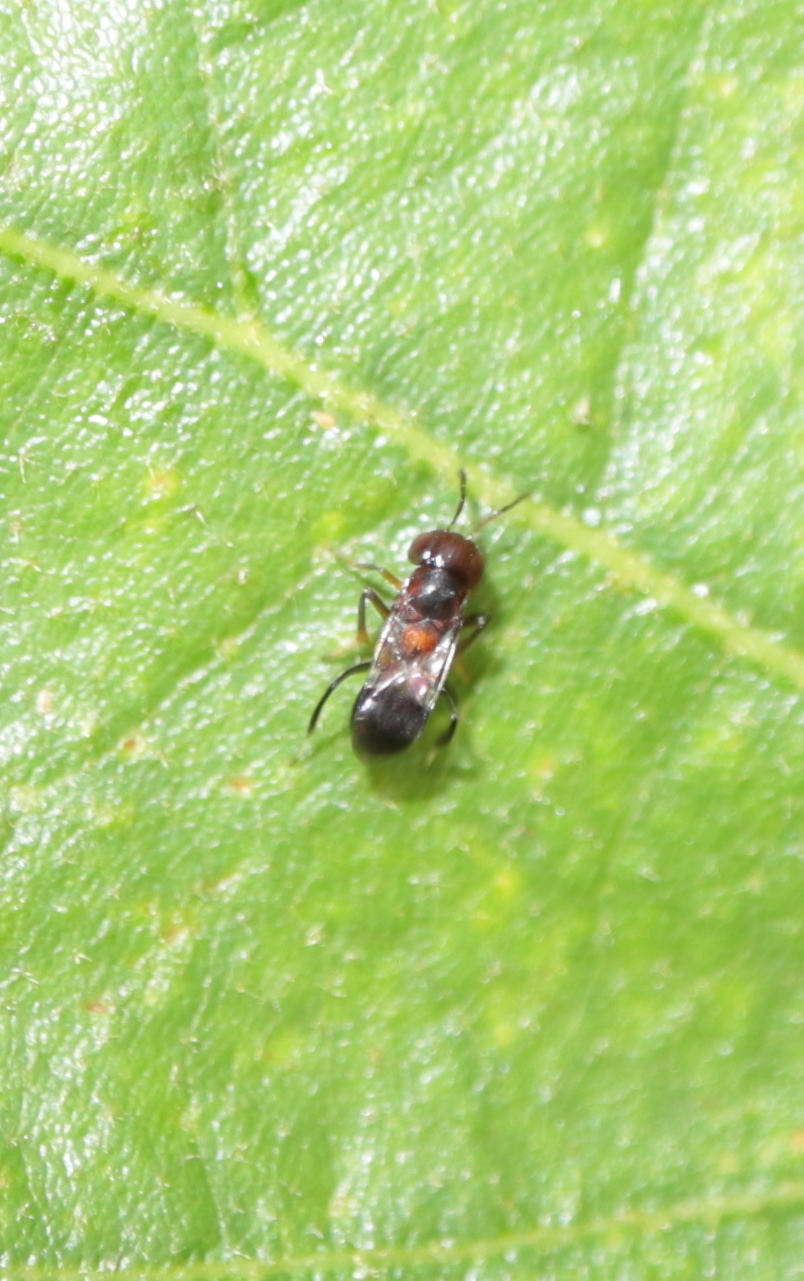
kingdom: Animalia
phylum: Arthropoda
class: Insecta
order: Hymenoptera
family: Encyrtidae
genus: Encyrtus
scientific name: Encyrtus aurantii
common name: Parasitoid wasp
